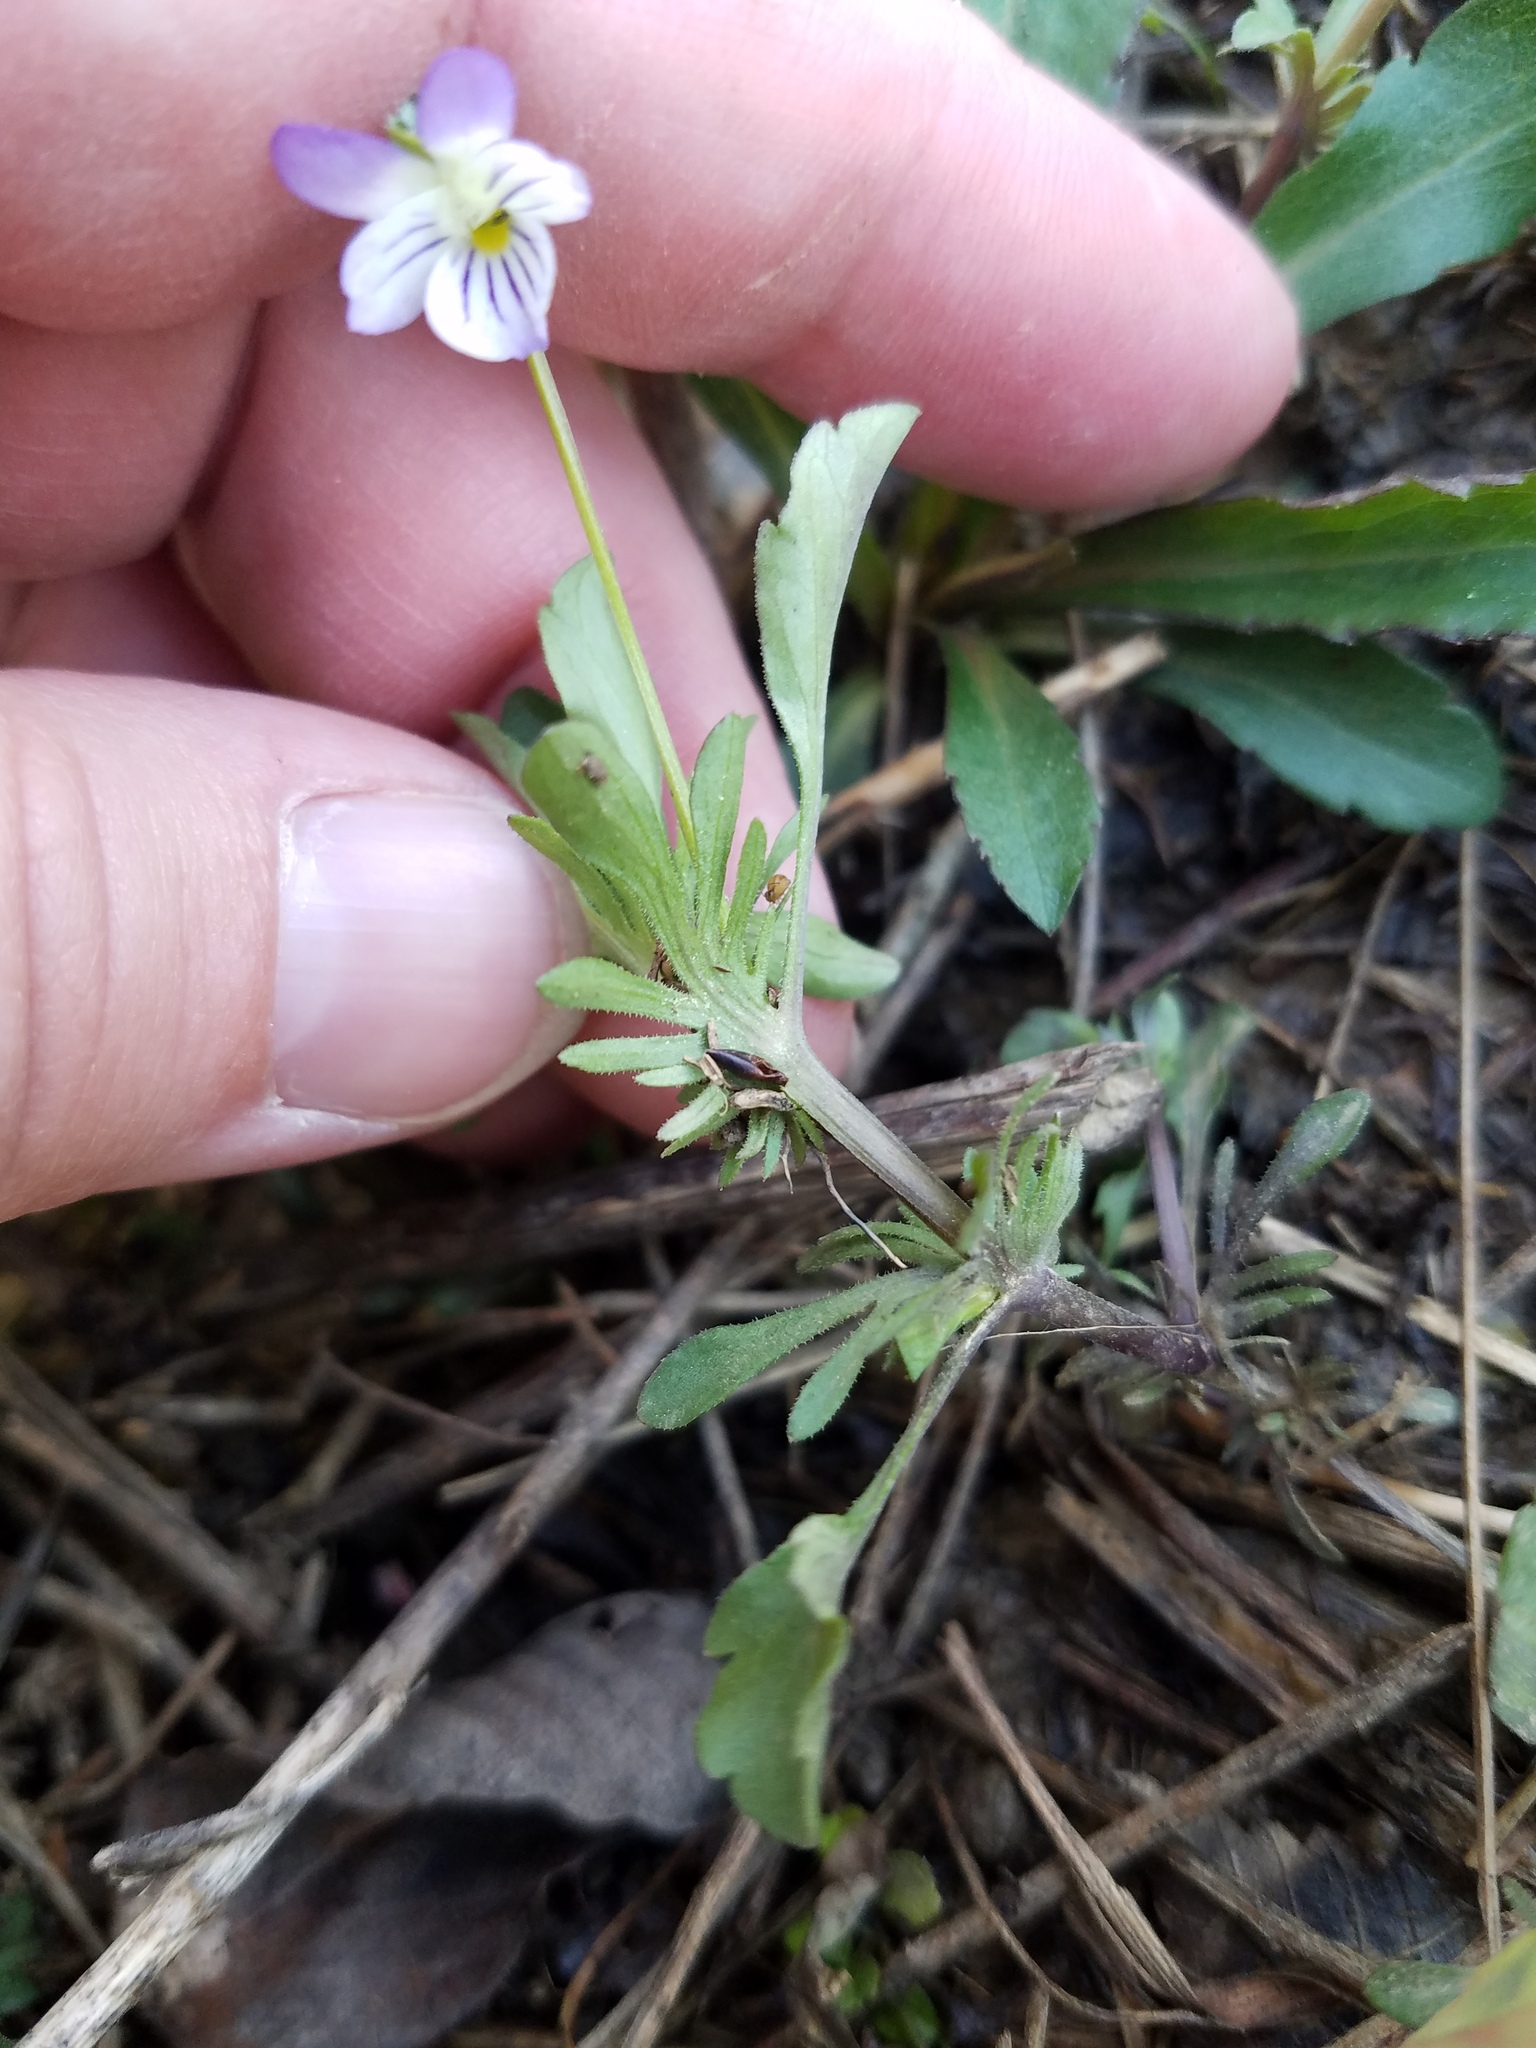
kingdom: Plantae
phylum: Tracheophyta
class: Magnoliopsida
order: Malpighiales
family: Violaceae
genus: Viola
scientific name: Viola rafinesquei
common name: American field pansy
